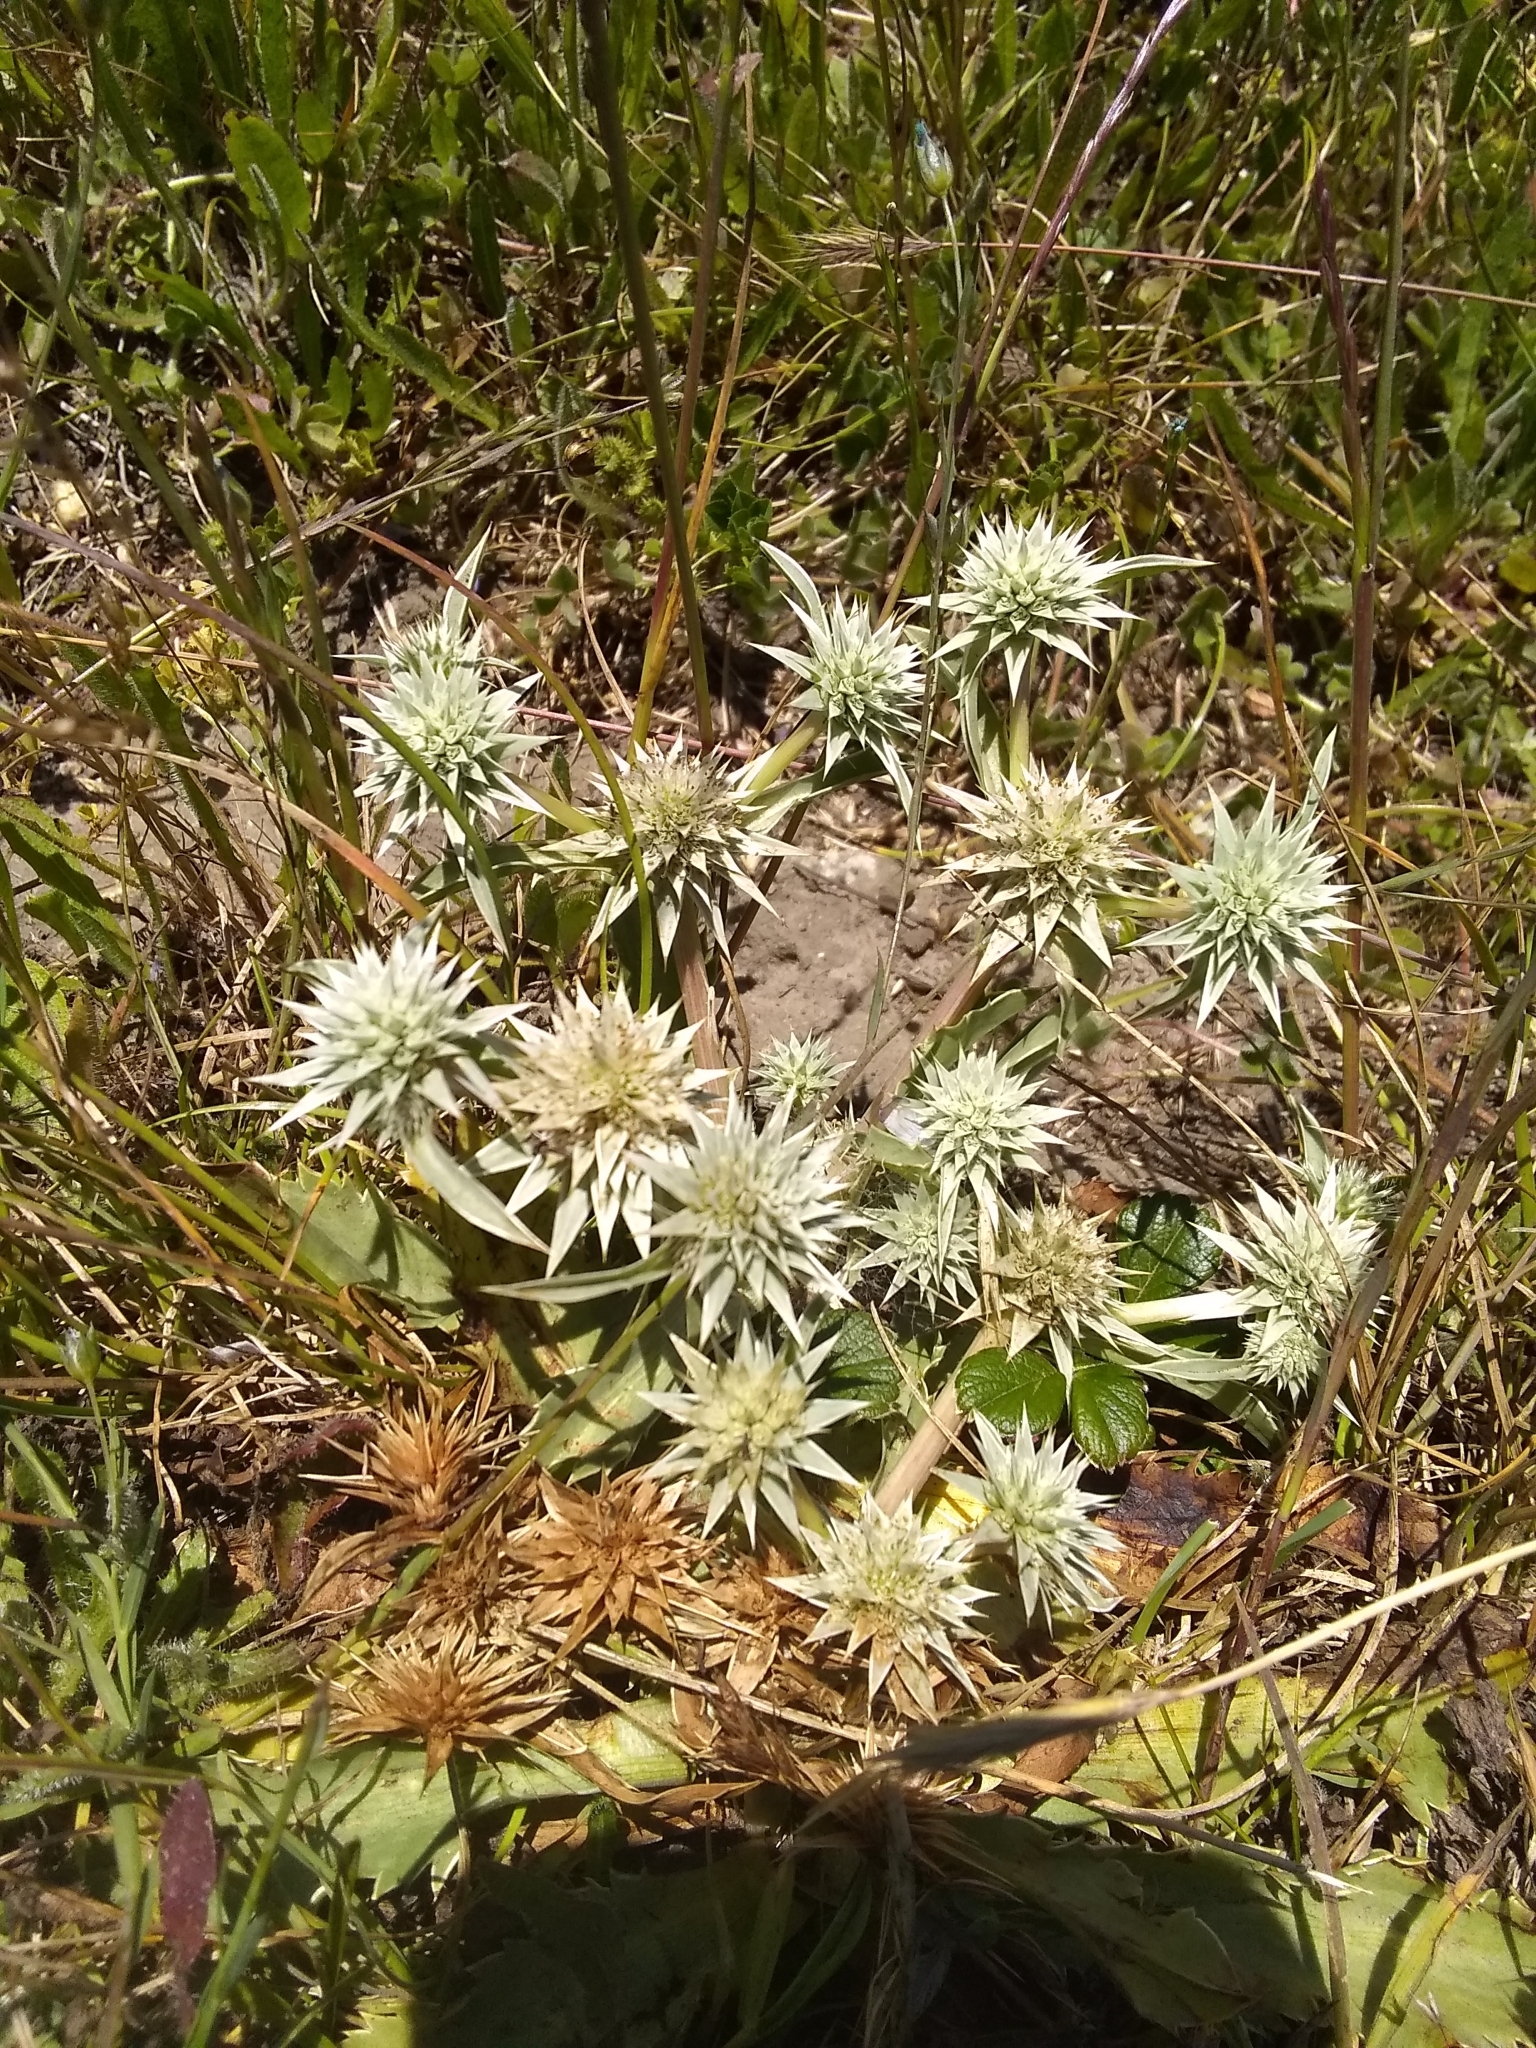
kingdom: Plantae
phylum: Tracheophyta
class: Magnoliopsida
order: Apiales
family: Apiaceae
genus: Eryngium
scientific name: Eryngium armatum
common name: Coyote thistle
